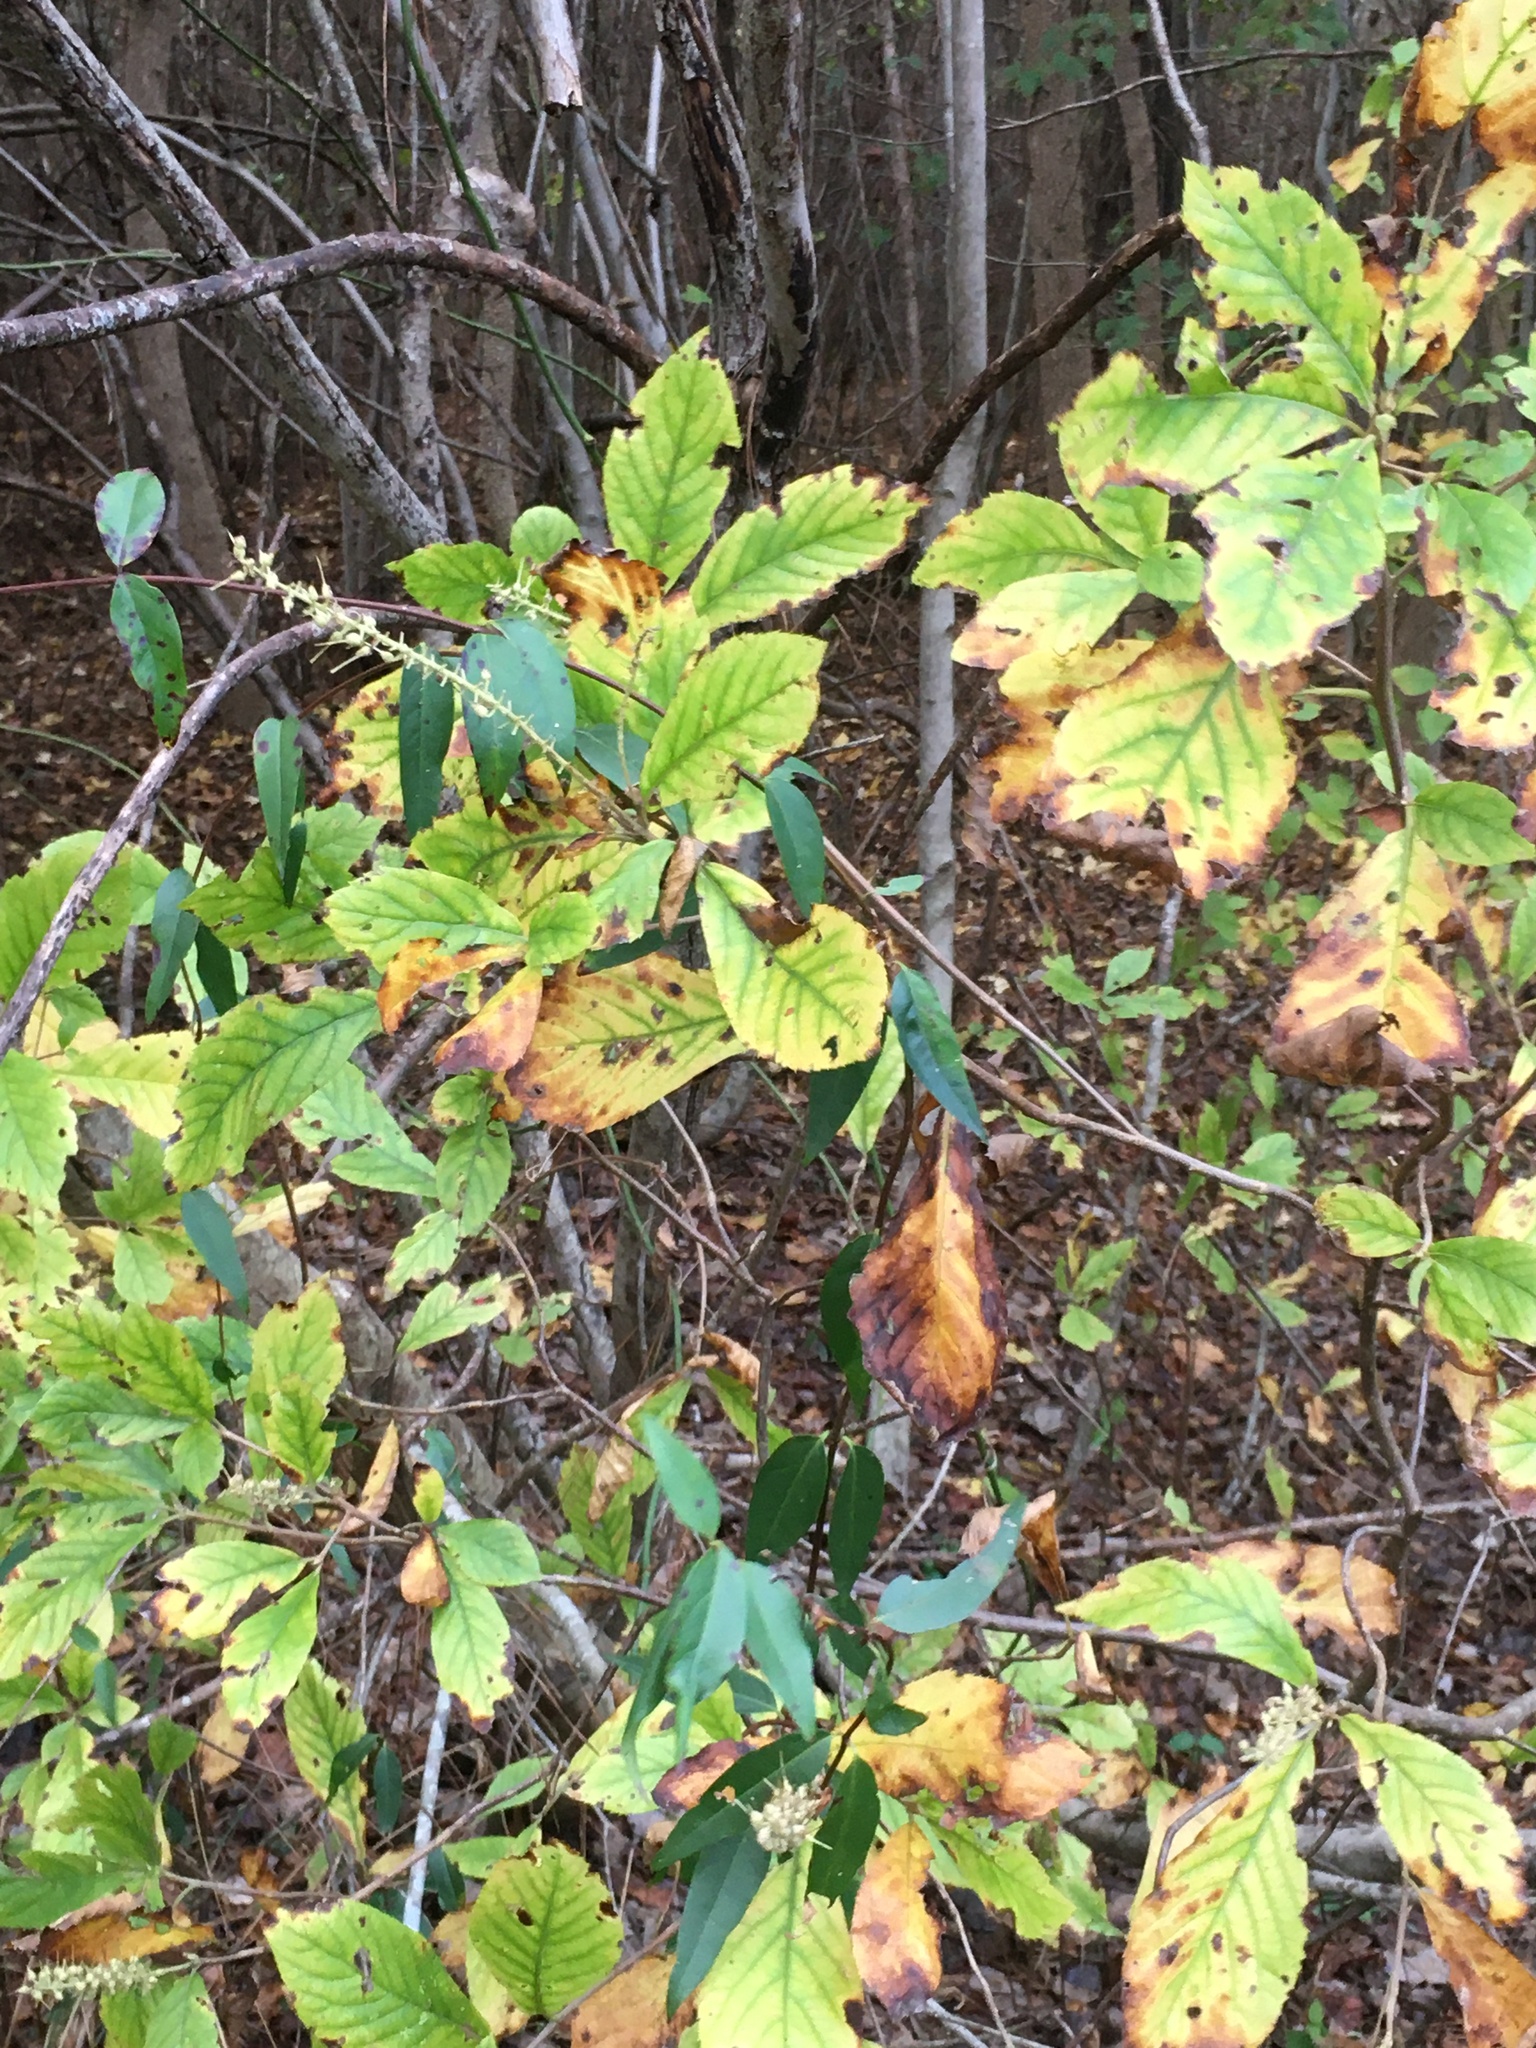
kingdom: Plantae
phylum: Tracheophyta
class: Magnoliopsida
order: Ericales
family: Clethraceae
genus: Clethra
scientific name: Clethra alnifolia
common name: Sweet pepperbush
